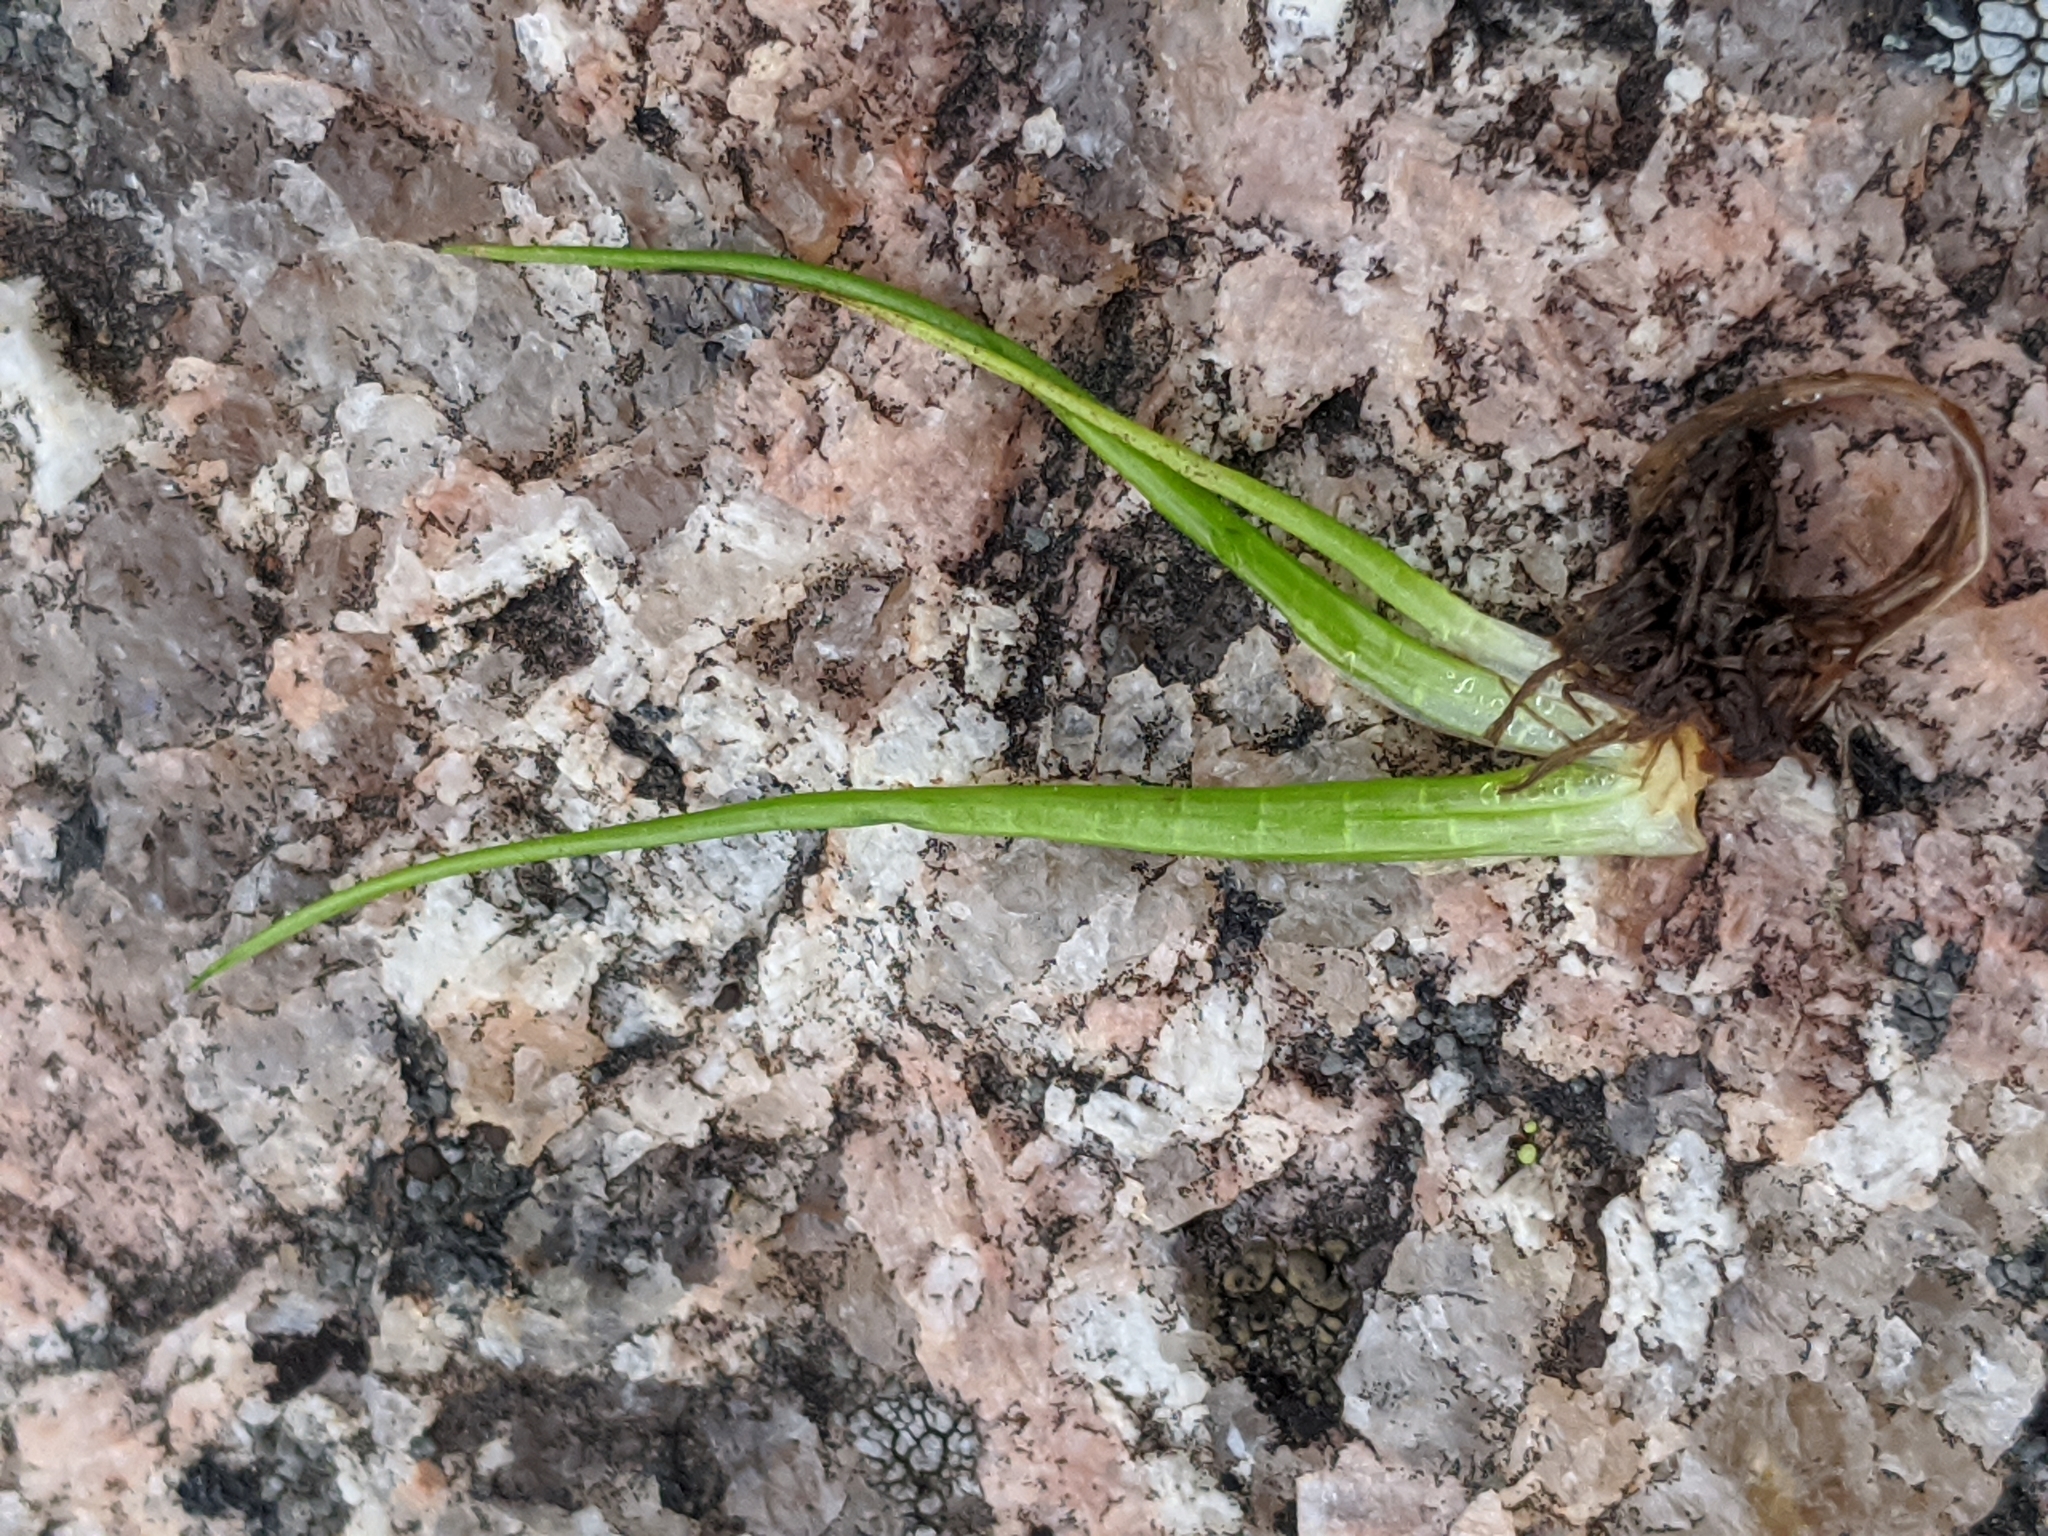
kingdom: Plantae
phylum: Tracheophyta
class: Lycopodiopsida
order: Isoetales
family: Isoetaceae
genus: Isoetes
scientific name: Isoetes lithophila
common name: Rock quillwort
